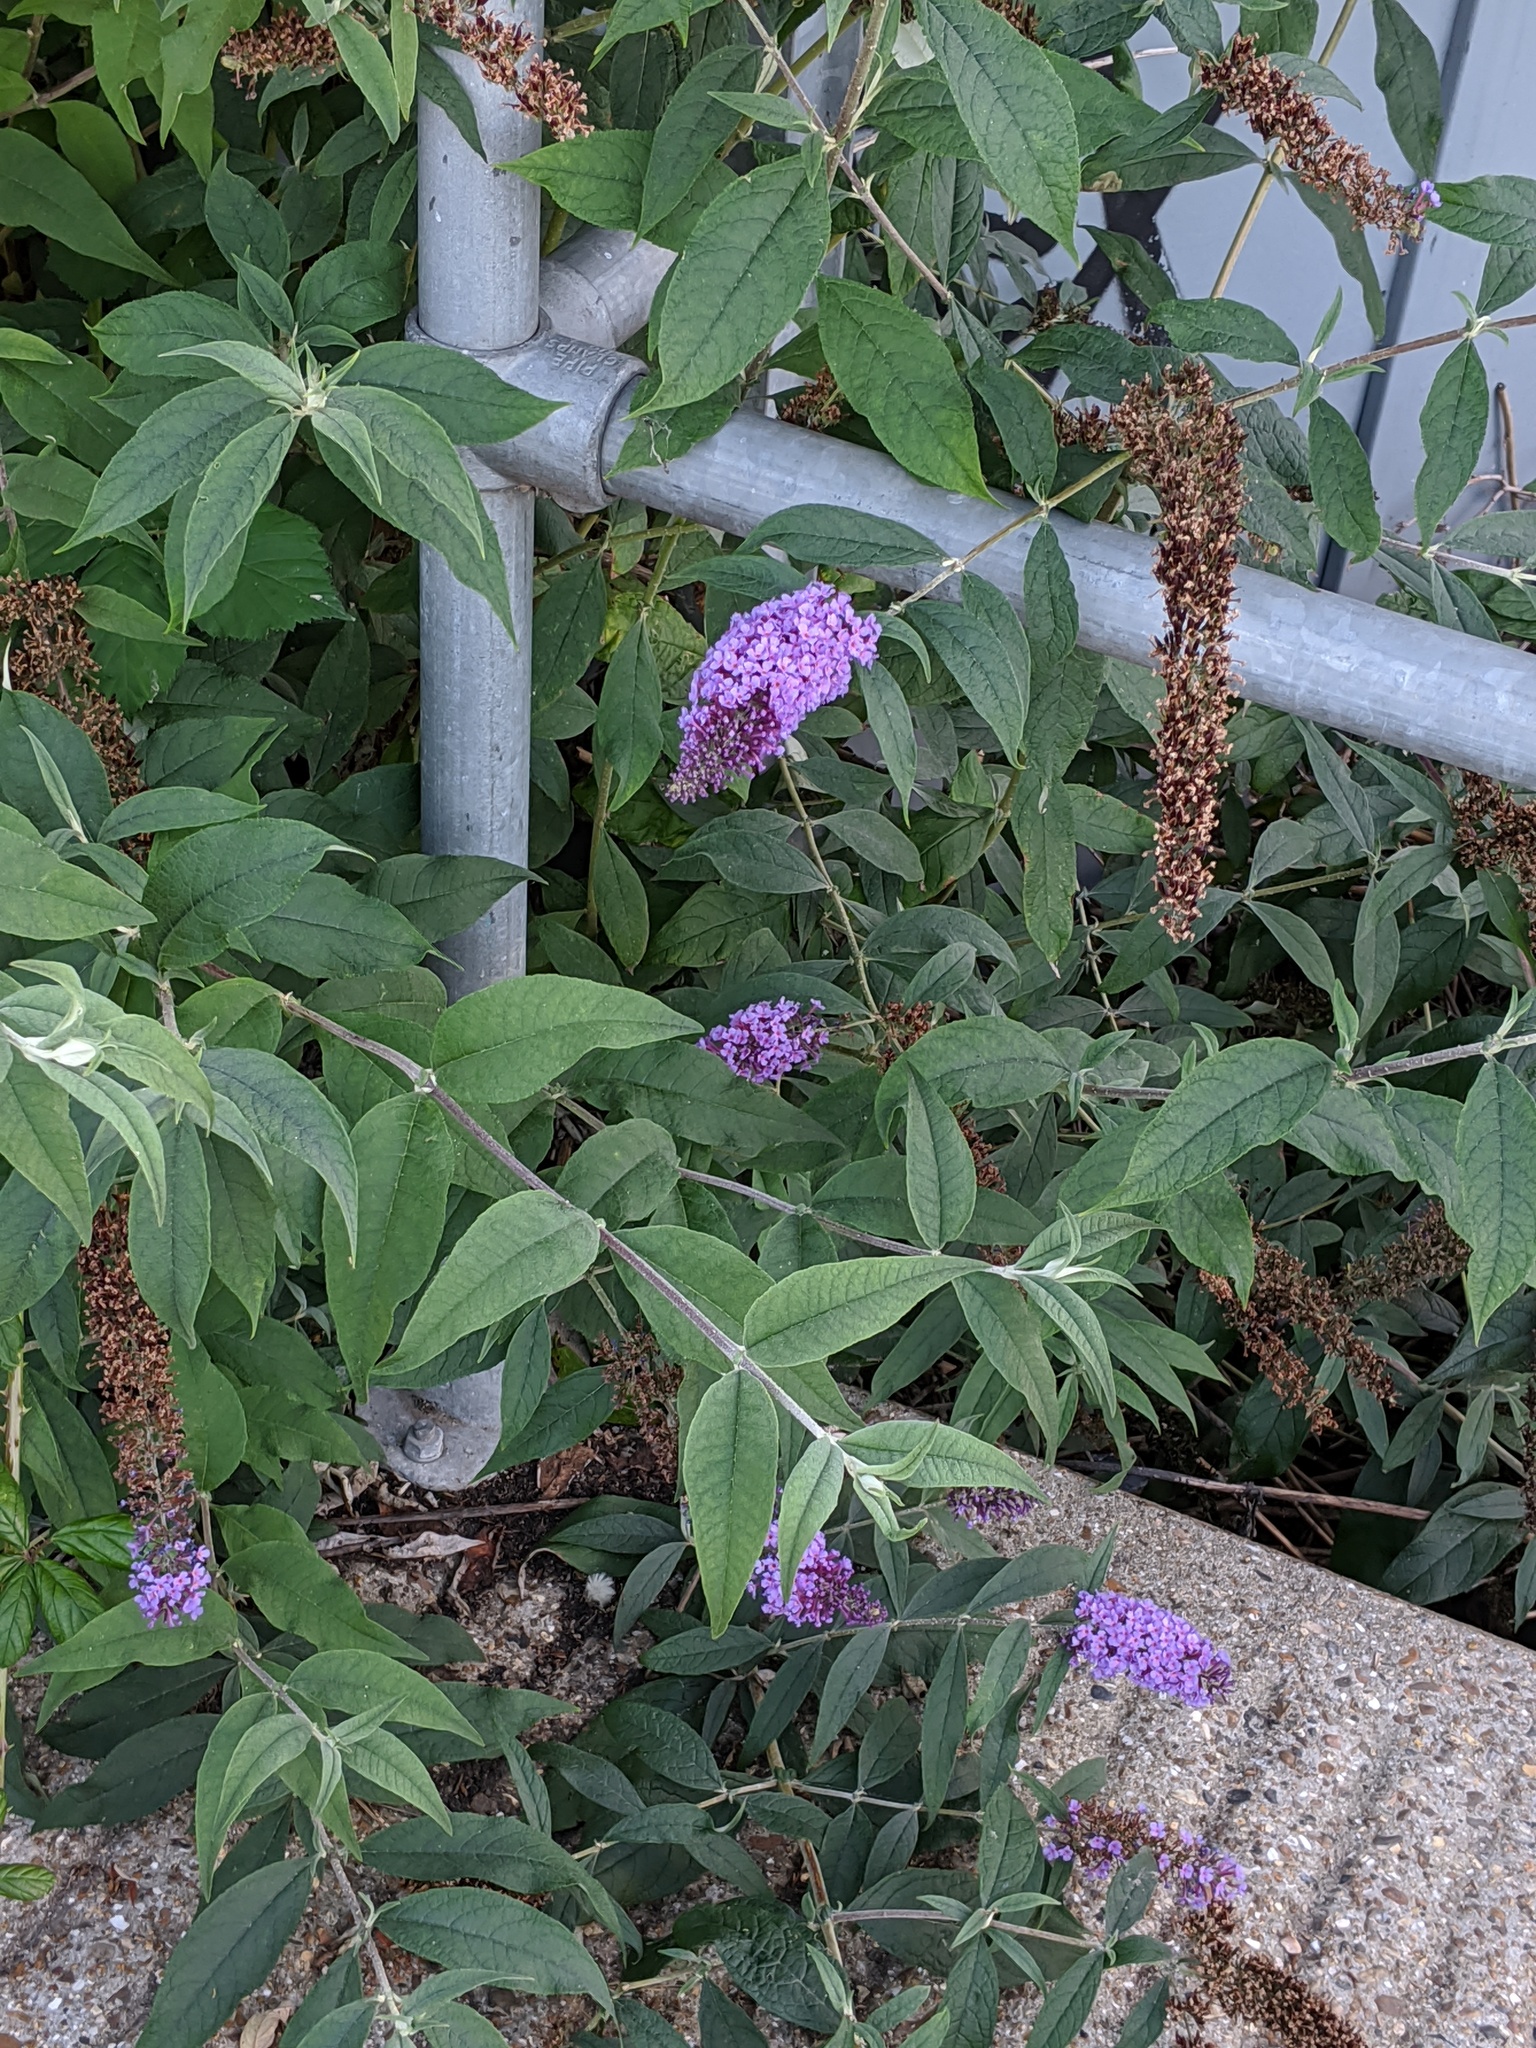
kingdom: Plantae
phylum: Tracheophyta
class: Magnoliopsida
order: Lamiales
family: Scrophulariaceae
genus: Buddleja
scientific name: Buddleja davidii
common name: Butterfly-bush
